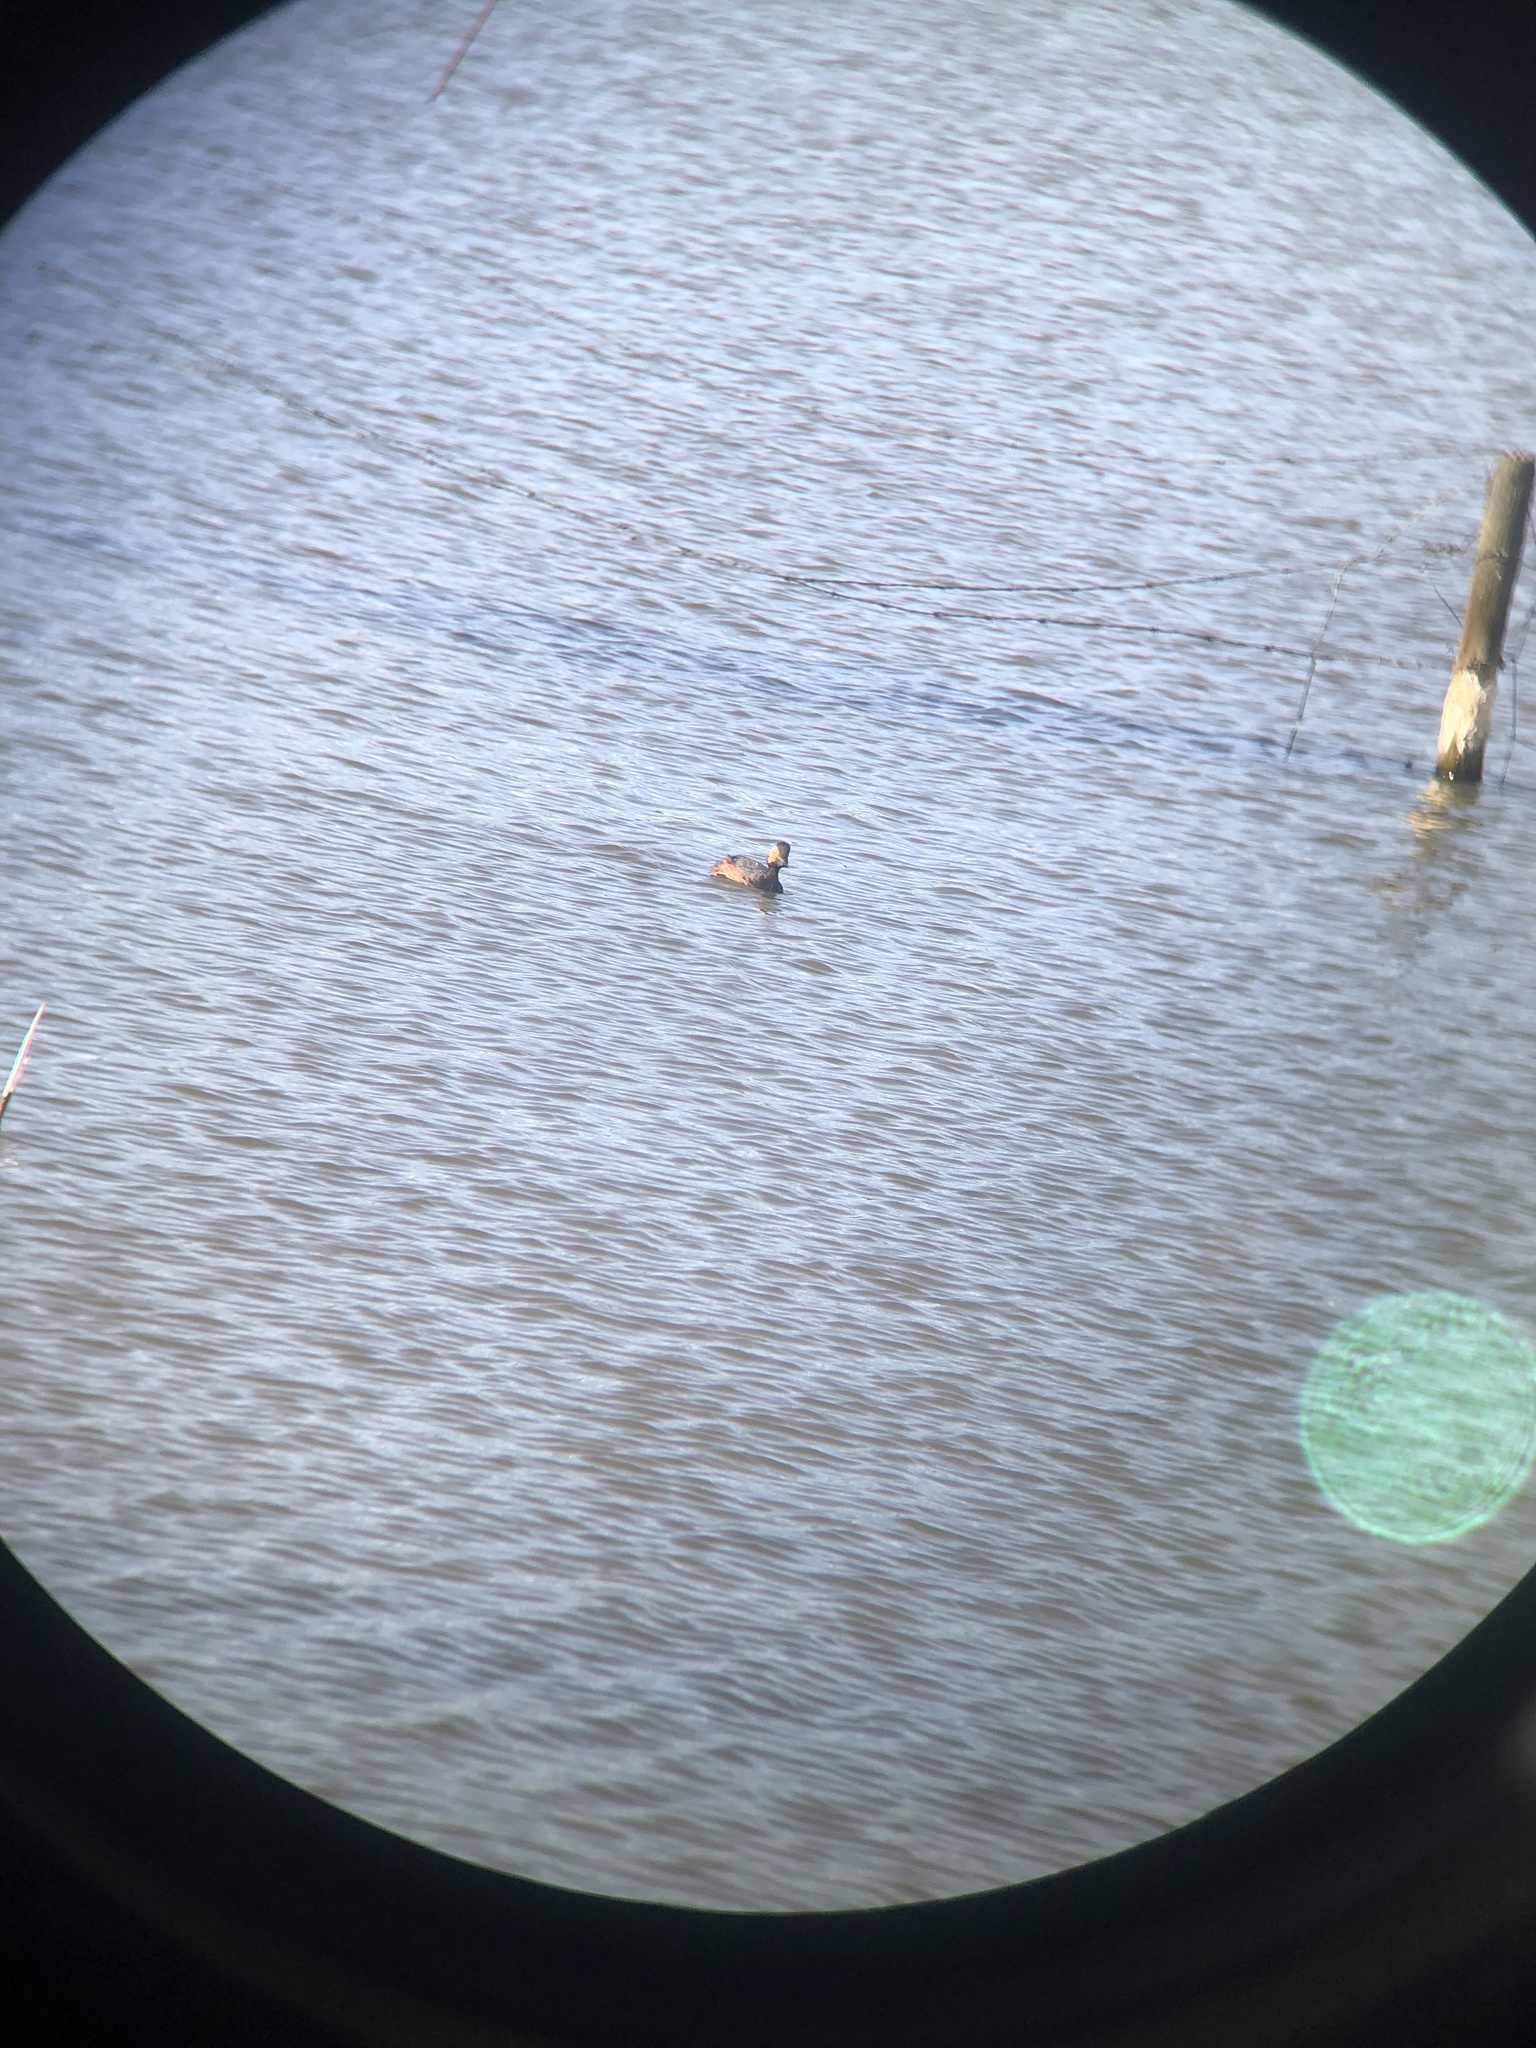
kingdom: Animalia
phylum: Chordata
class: Aves
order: Podicipediformes
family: Podicipedidae
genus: Podiceps
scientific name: Podiceps nigricollis
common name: Black-necked grebe
